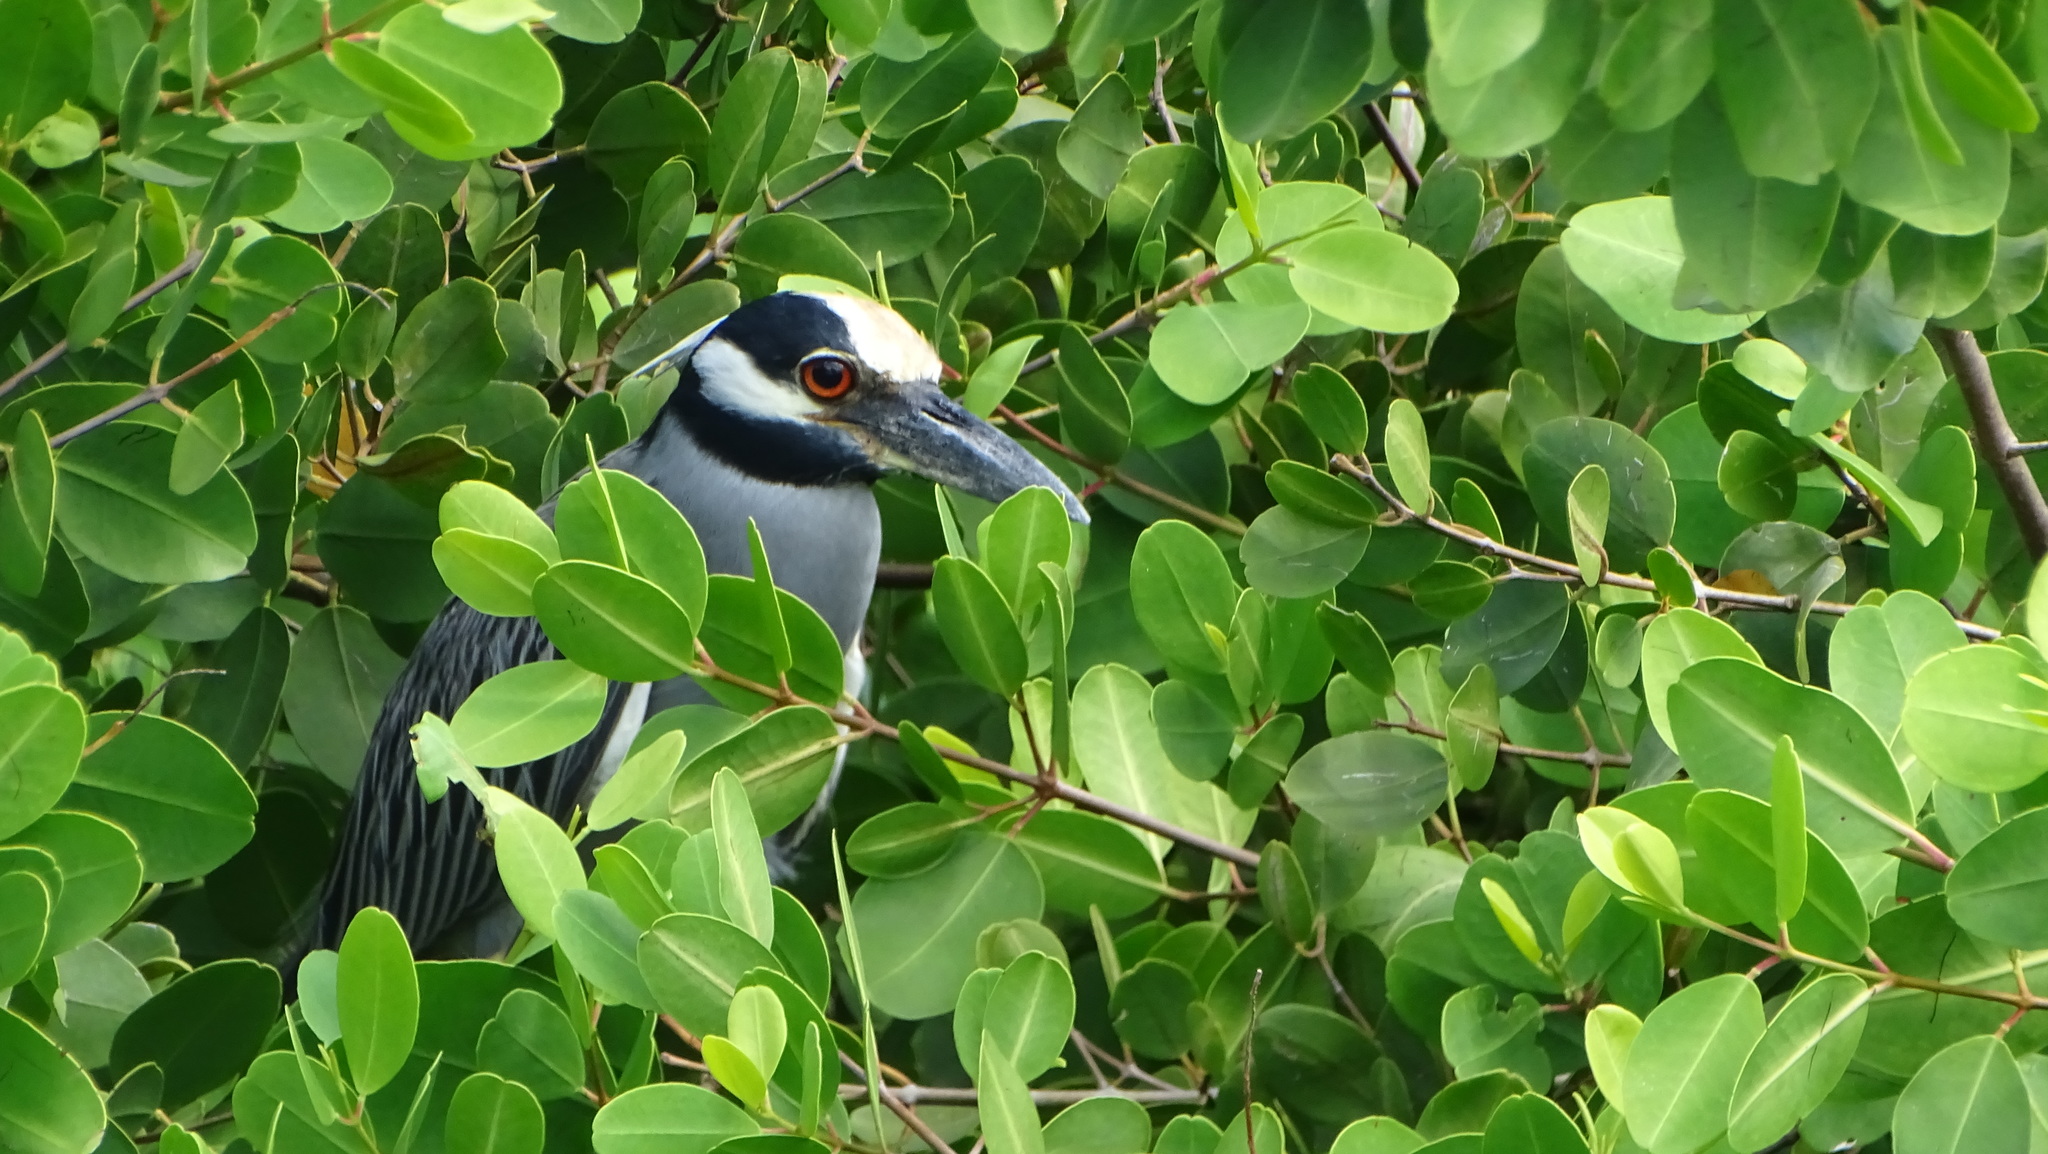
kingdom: Animalia
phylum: Chordata
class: Aves
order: Pelecaniformes
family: Ardeidae
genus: Nyctanassa
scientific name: Nyctanassa violacea
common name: Yellow-crowned night heron
